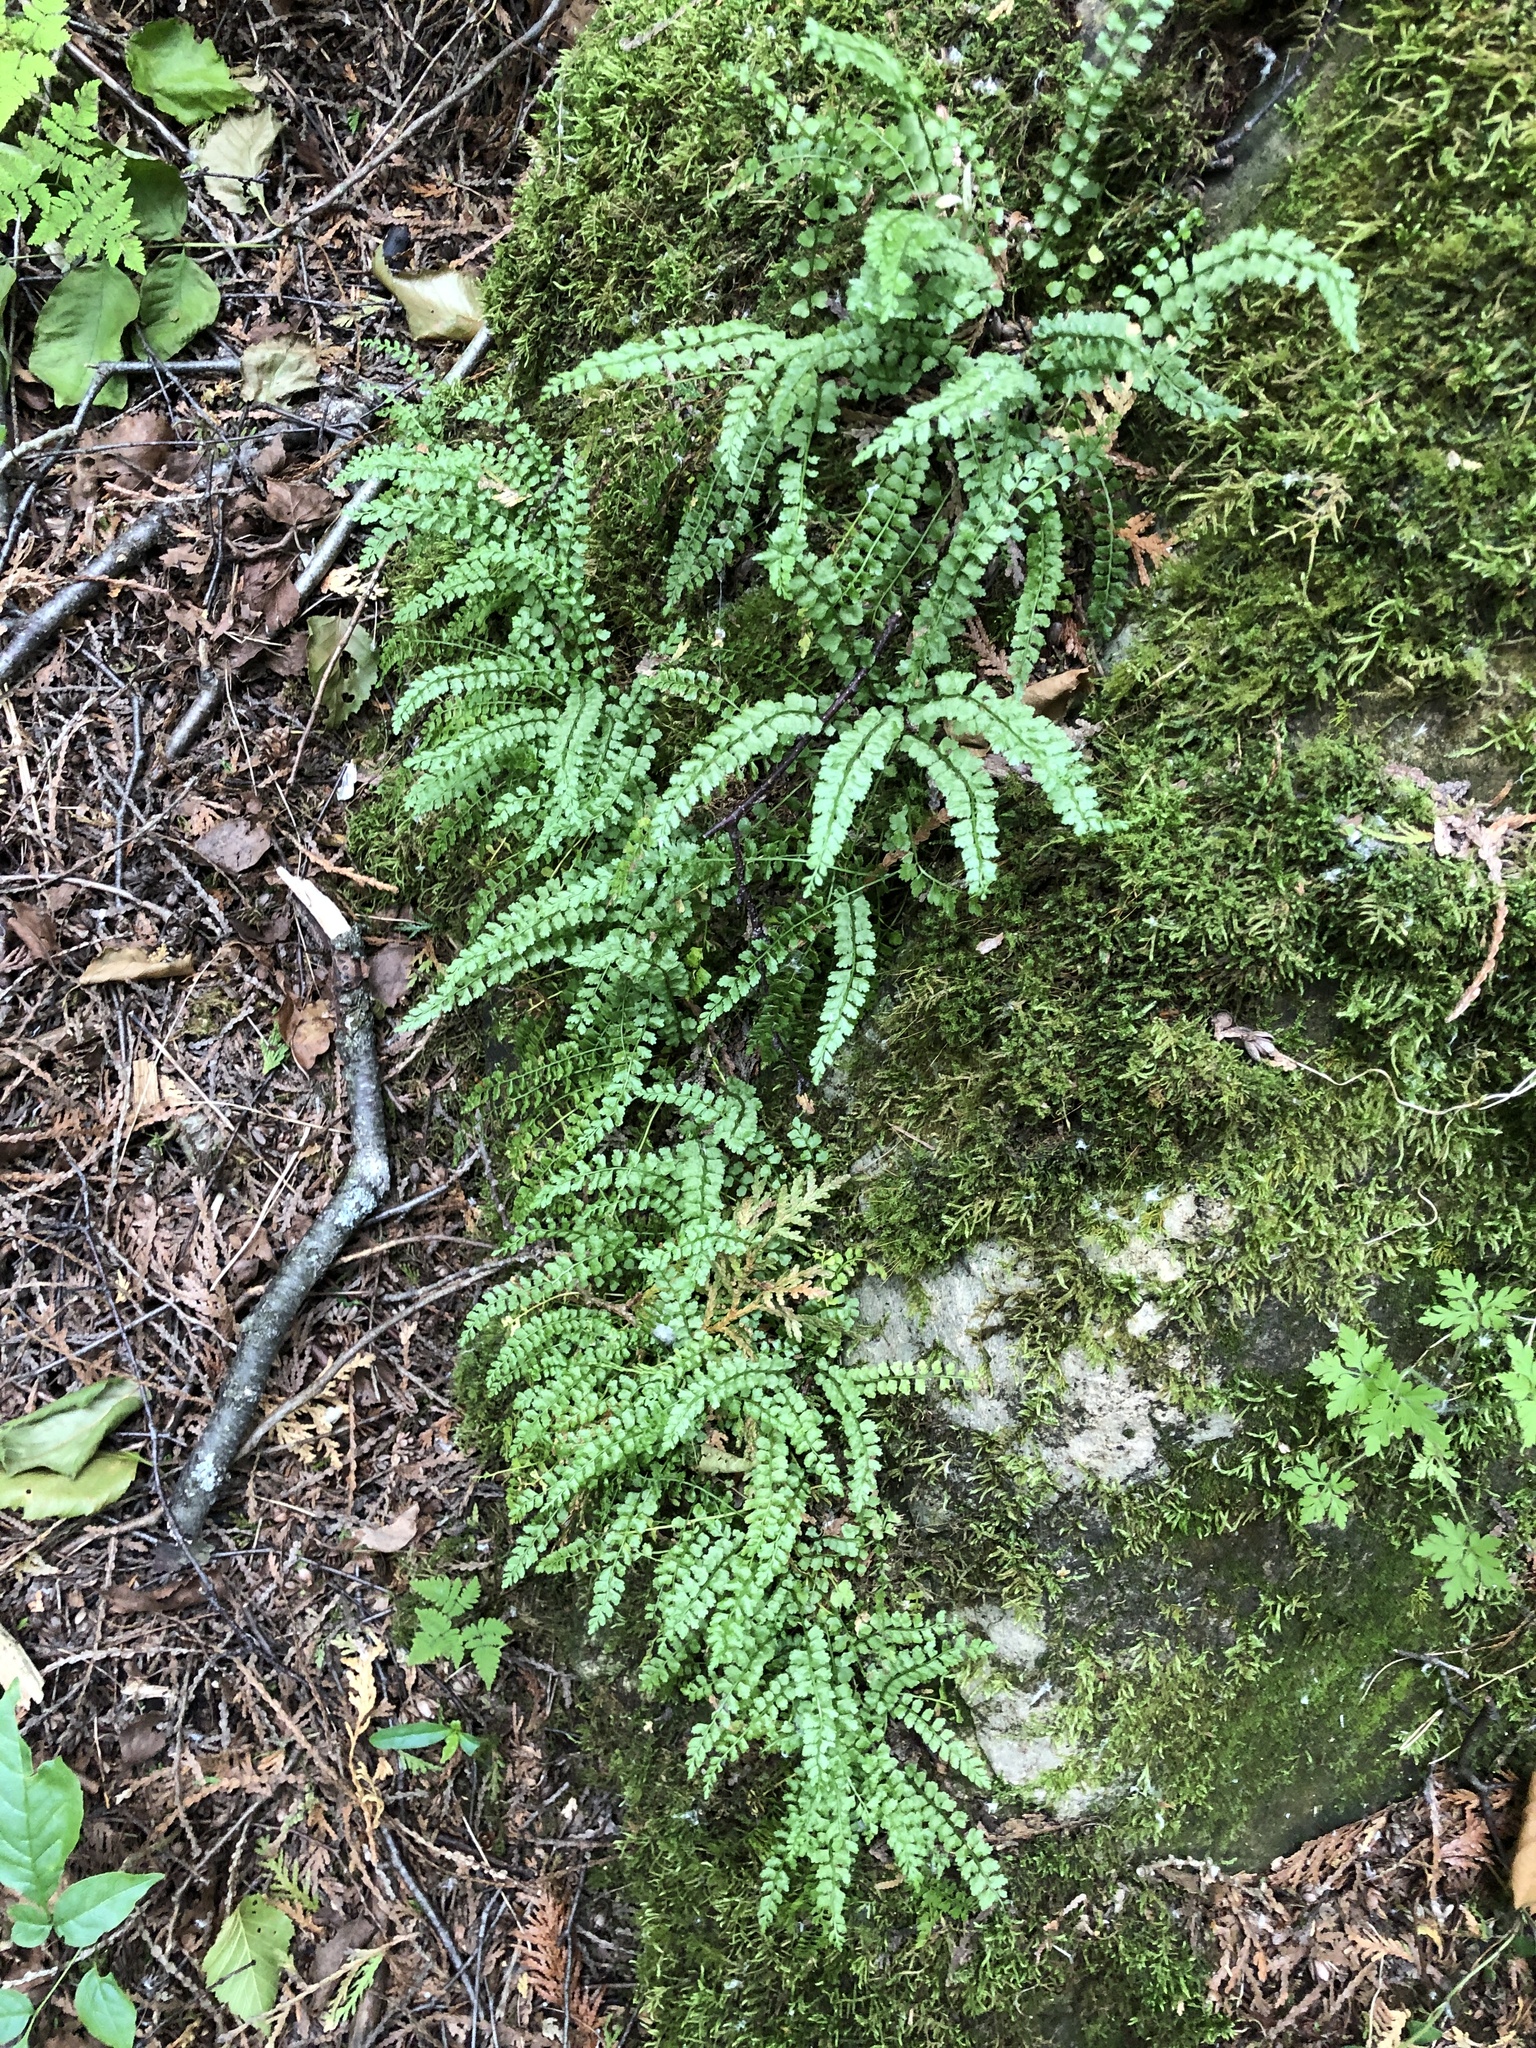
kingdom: Plantae
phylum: Tracheophyta
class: Polypodiopsida
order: Polypodiales
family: Aspleniaceae
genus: Asplenium
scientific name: Asplenium viride
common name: Green spleenwort
